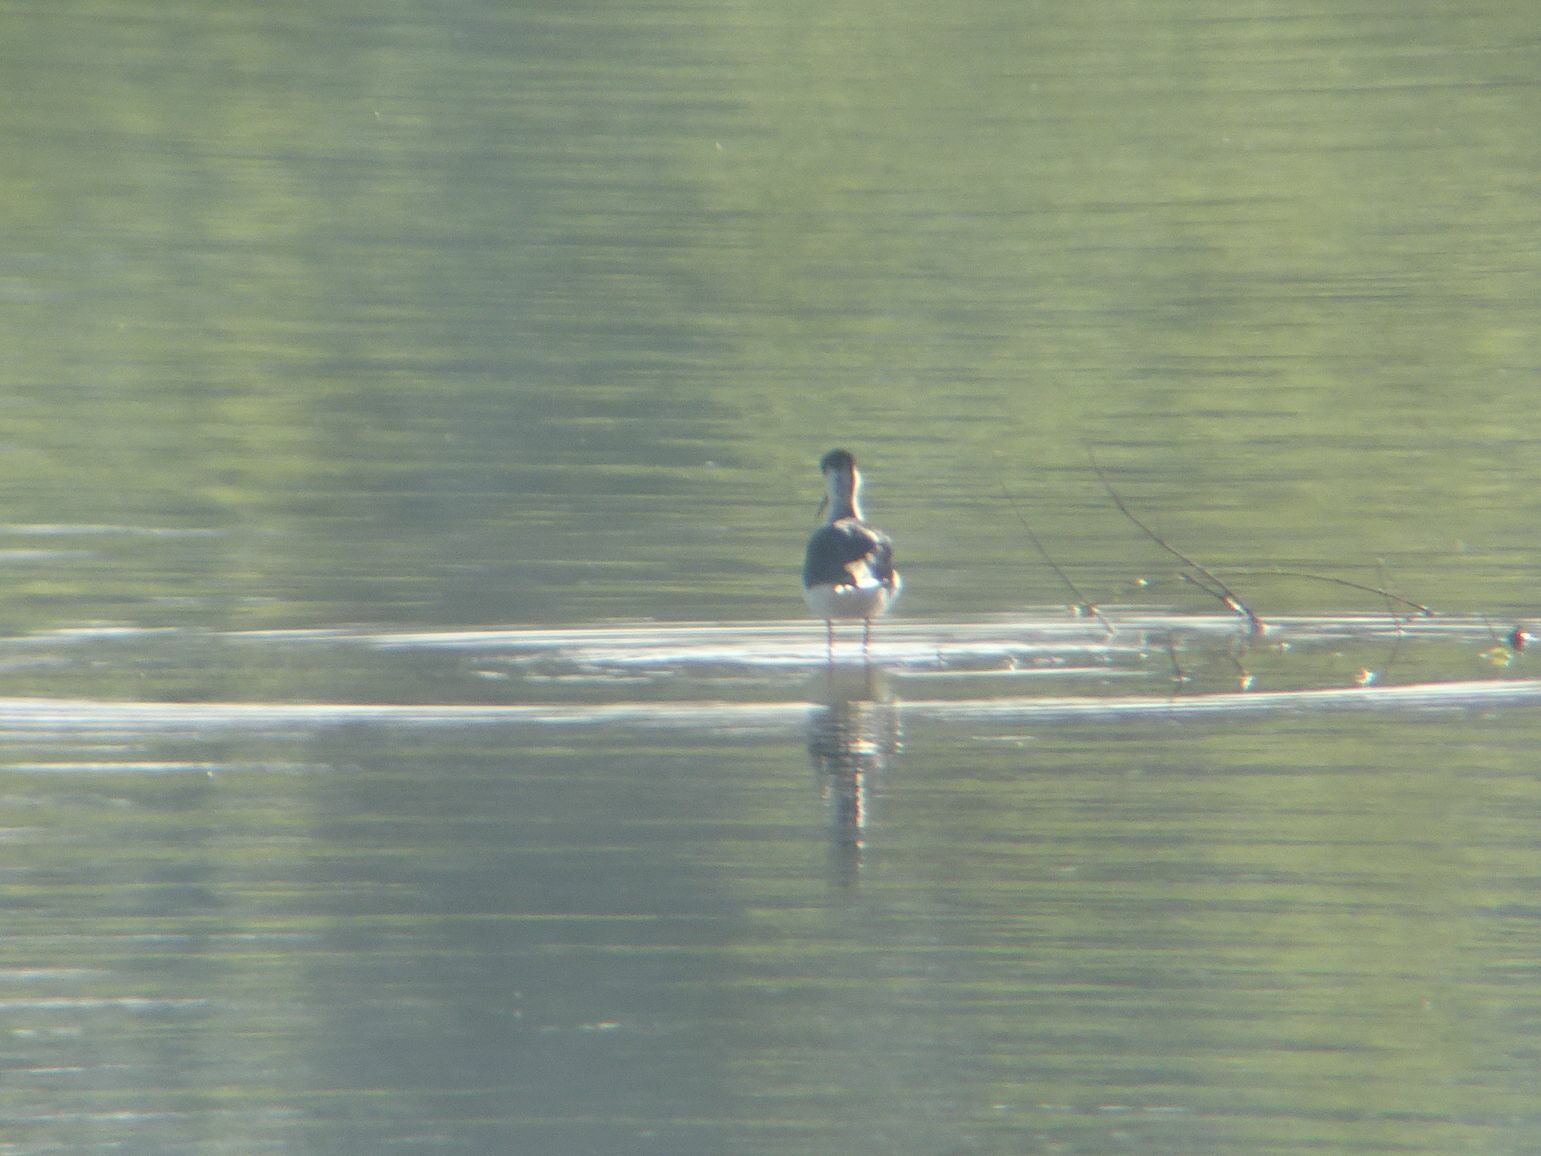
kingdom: Animalia
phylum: Chordata
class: Aves
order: Charadriiformes
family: Recurvirostridae
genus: Himantopus
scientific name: Himantopus himantopus
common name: Black-winged stilt
